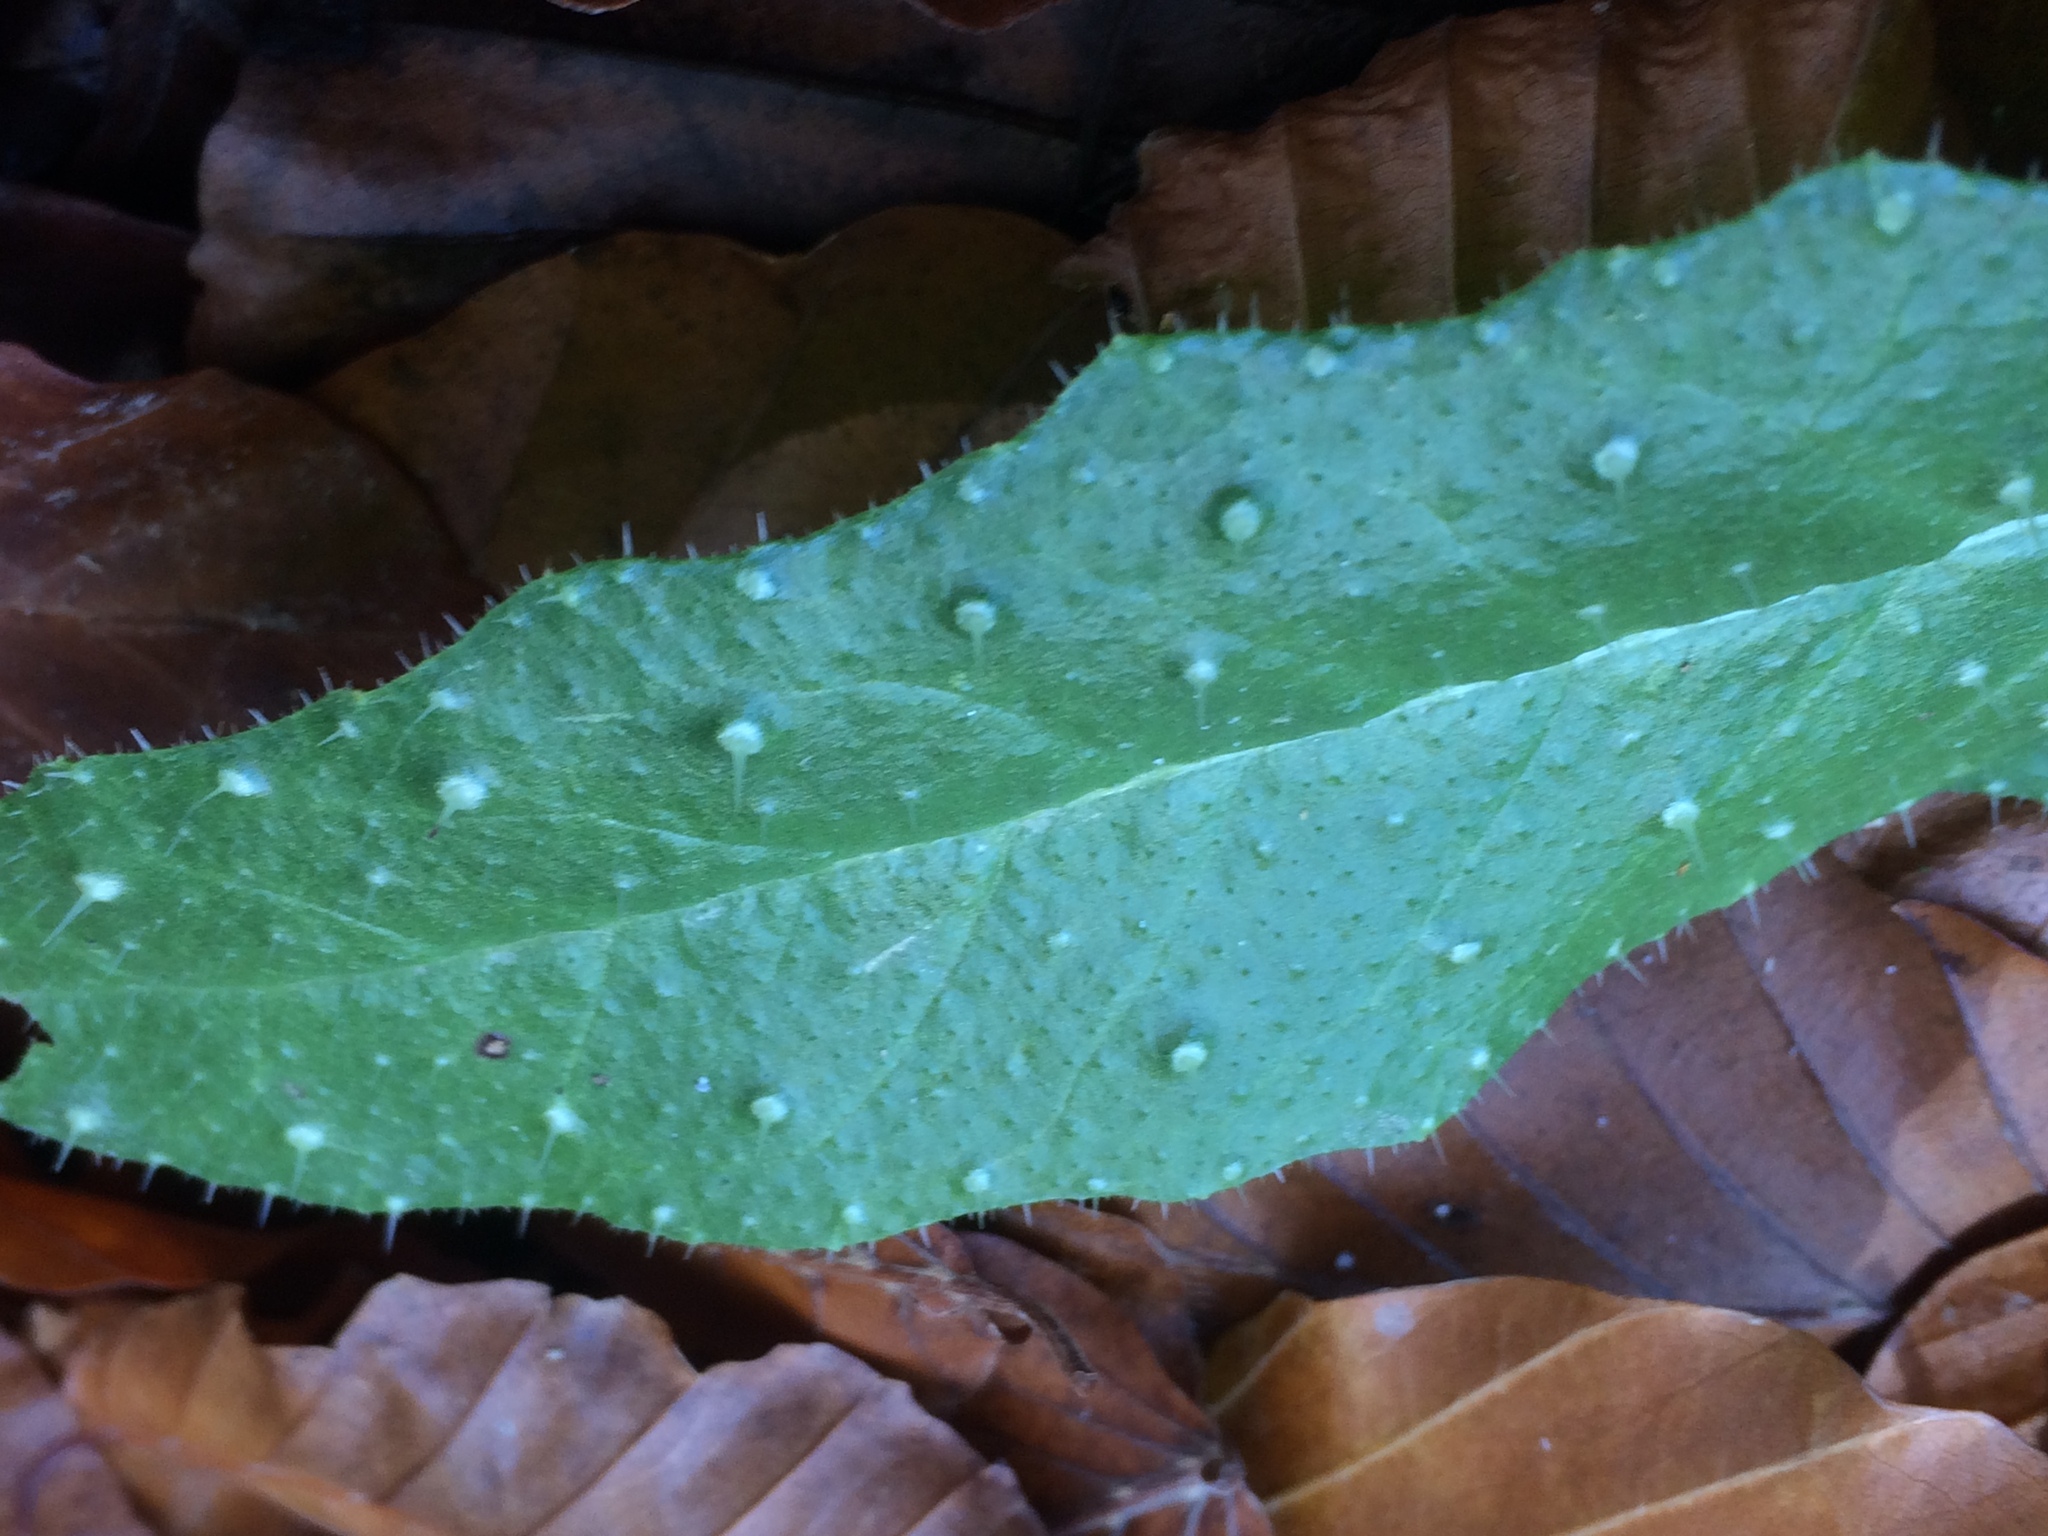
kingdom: Plantae
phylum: Tracheophyta
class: Magnoliopsida
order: Asterales
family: Asteraceae
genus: Helminthotheca
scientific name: Helminthotheca echioides
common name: Ox-tongue
